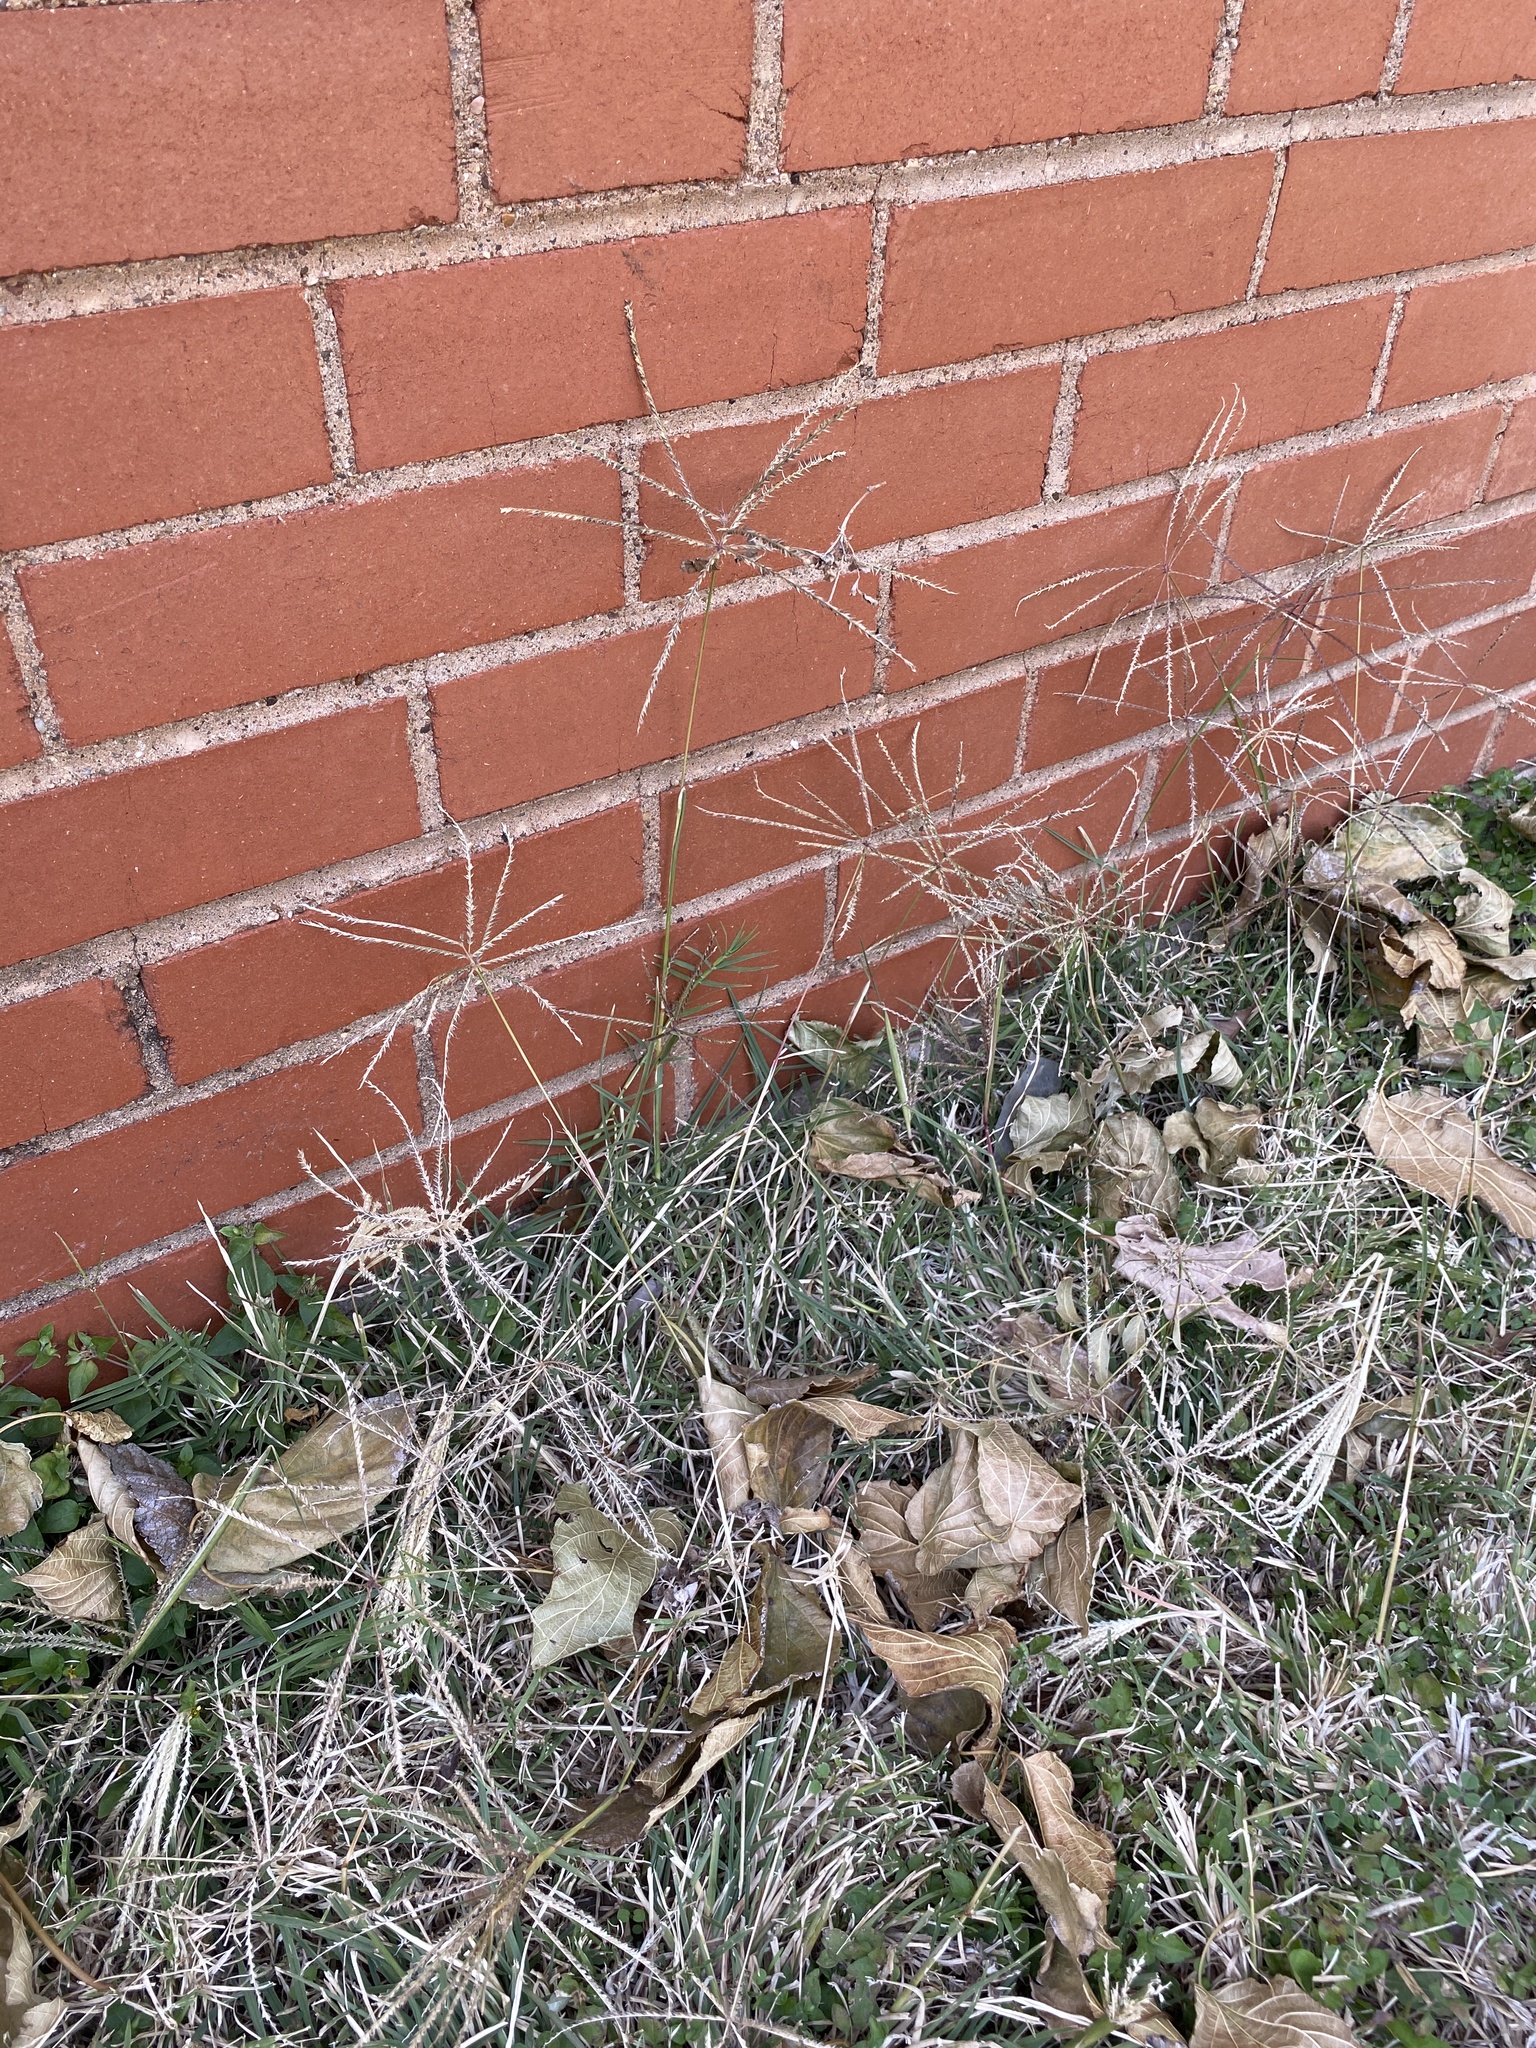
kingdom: Plantae
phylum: Tracheophyta
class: Liliopsida
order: Poales
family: Poaceae
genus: Chloris
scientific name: Chloris verticillata
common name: Tumble windmill grass
